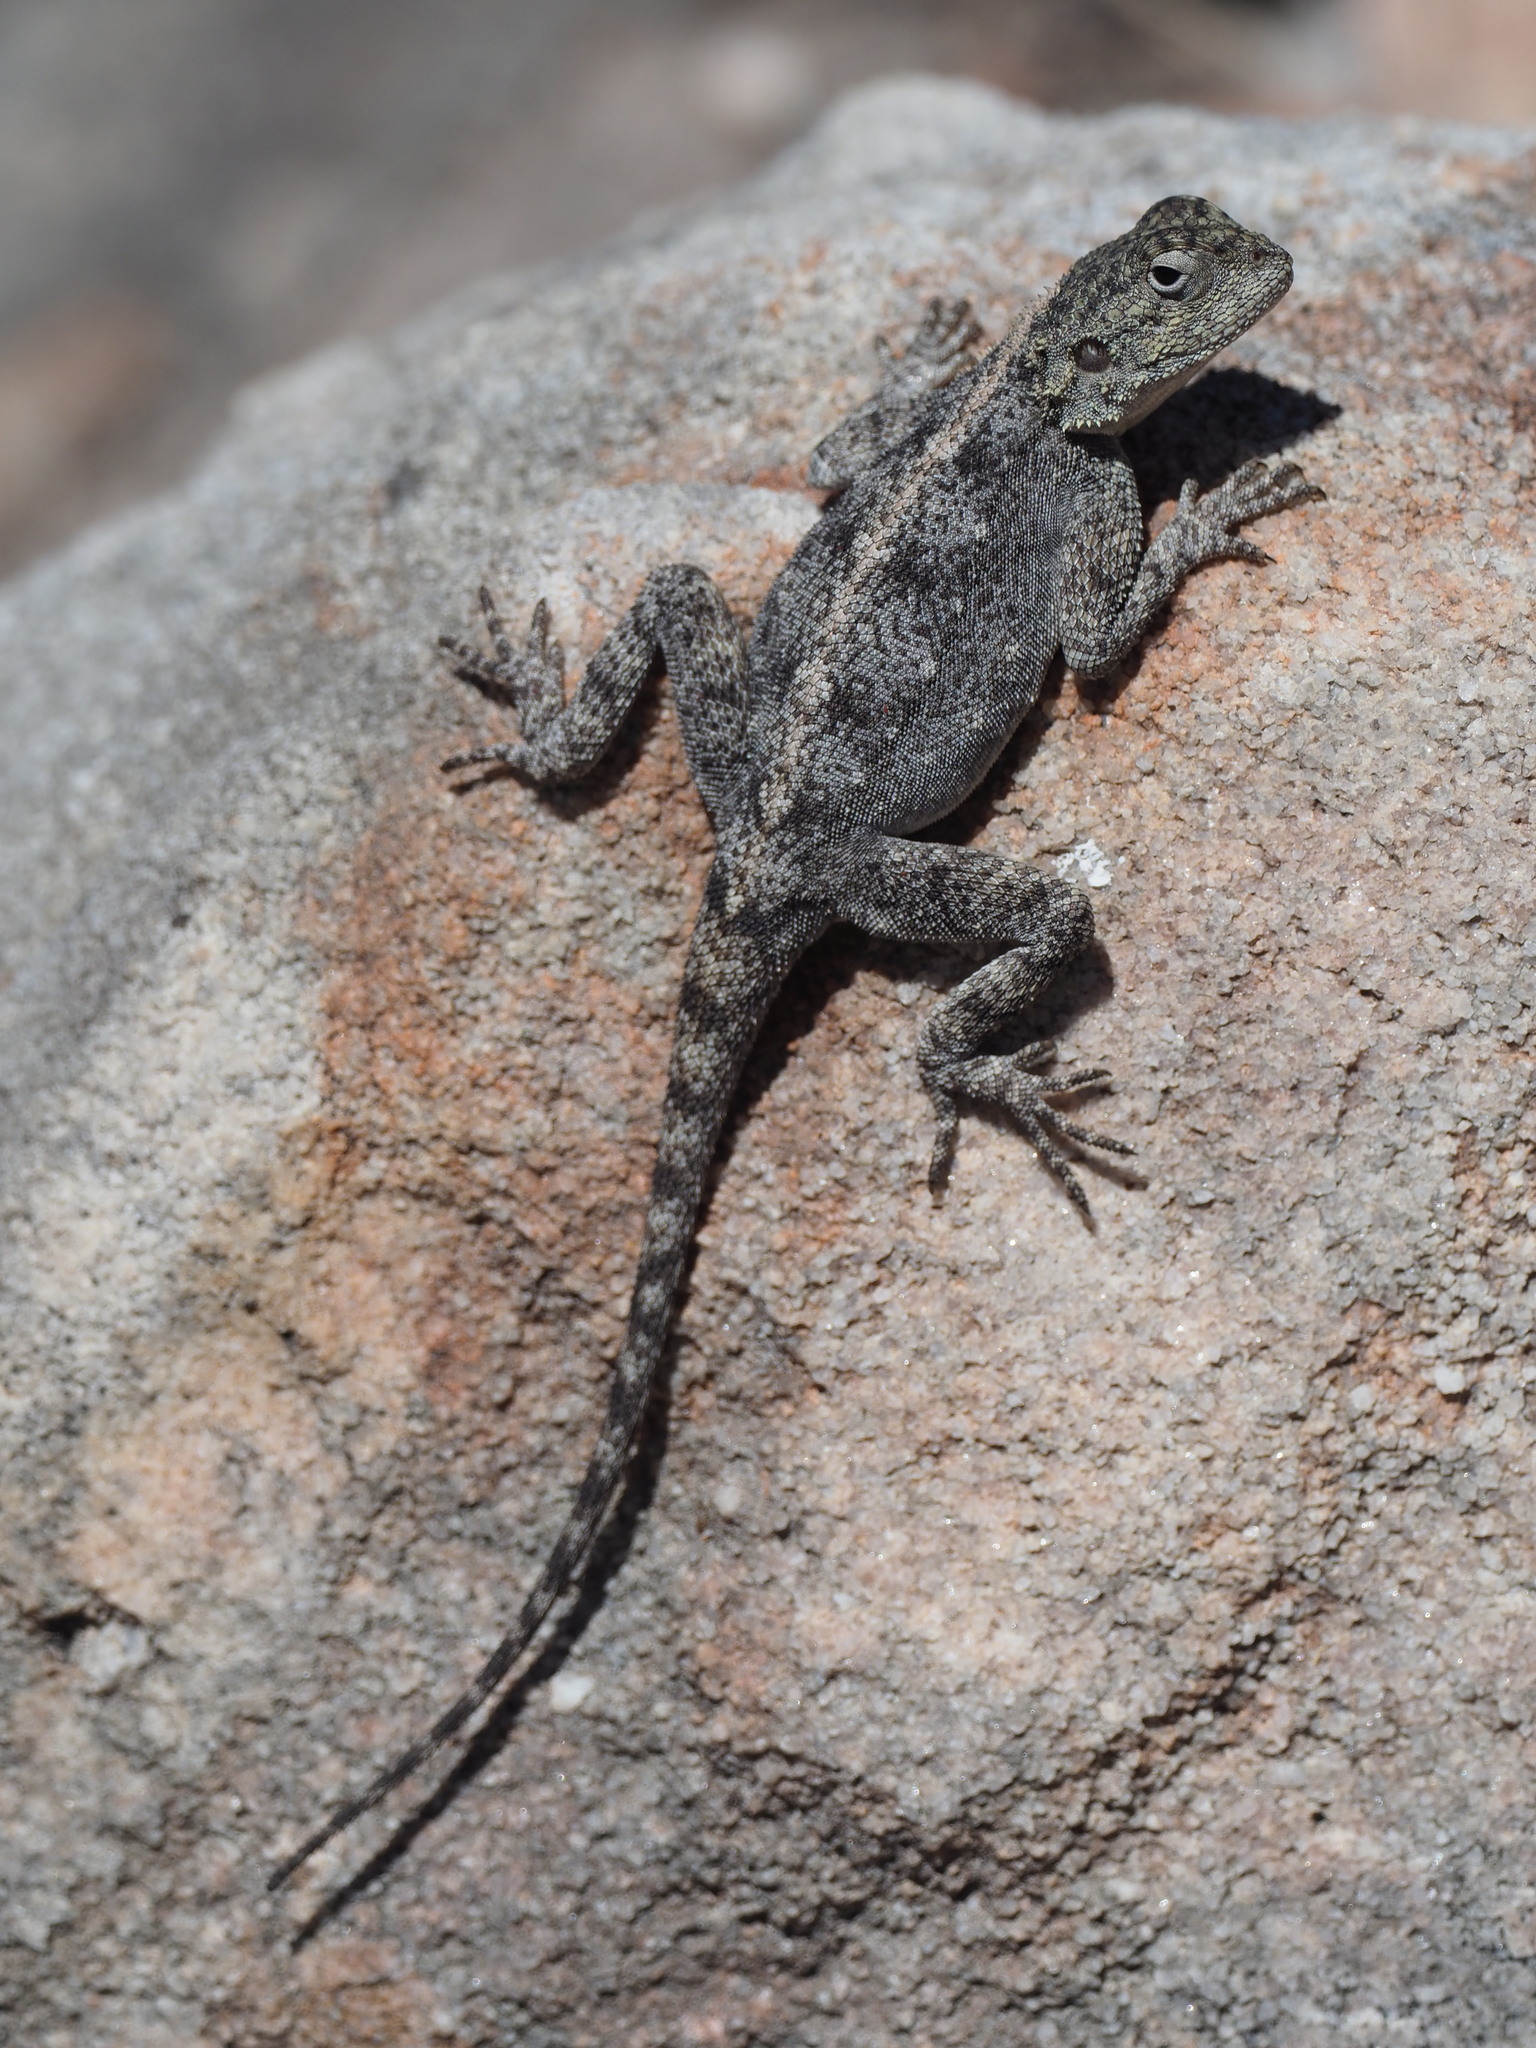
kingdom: Animalia
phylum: Chordata
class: Squamata
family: Agamidae
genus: Agama
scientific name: Agama atra
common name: Southern african rock agama
